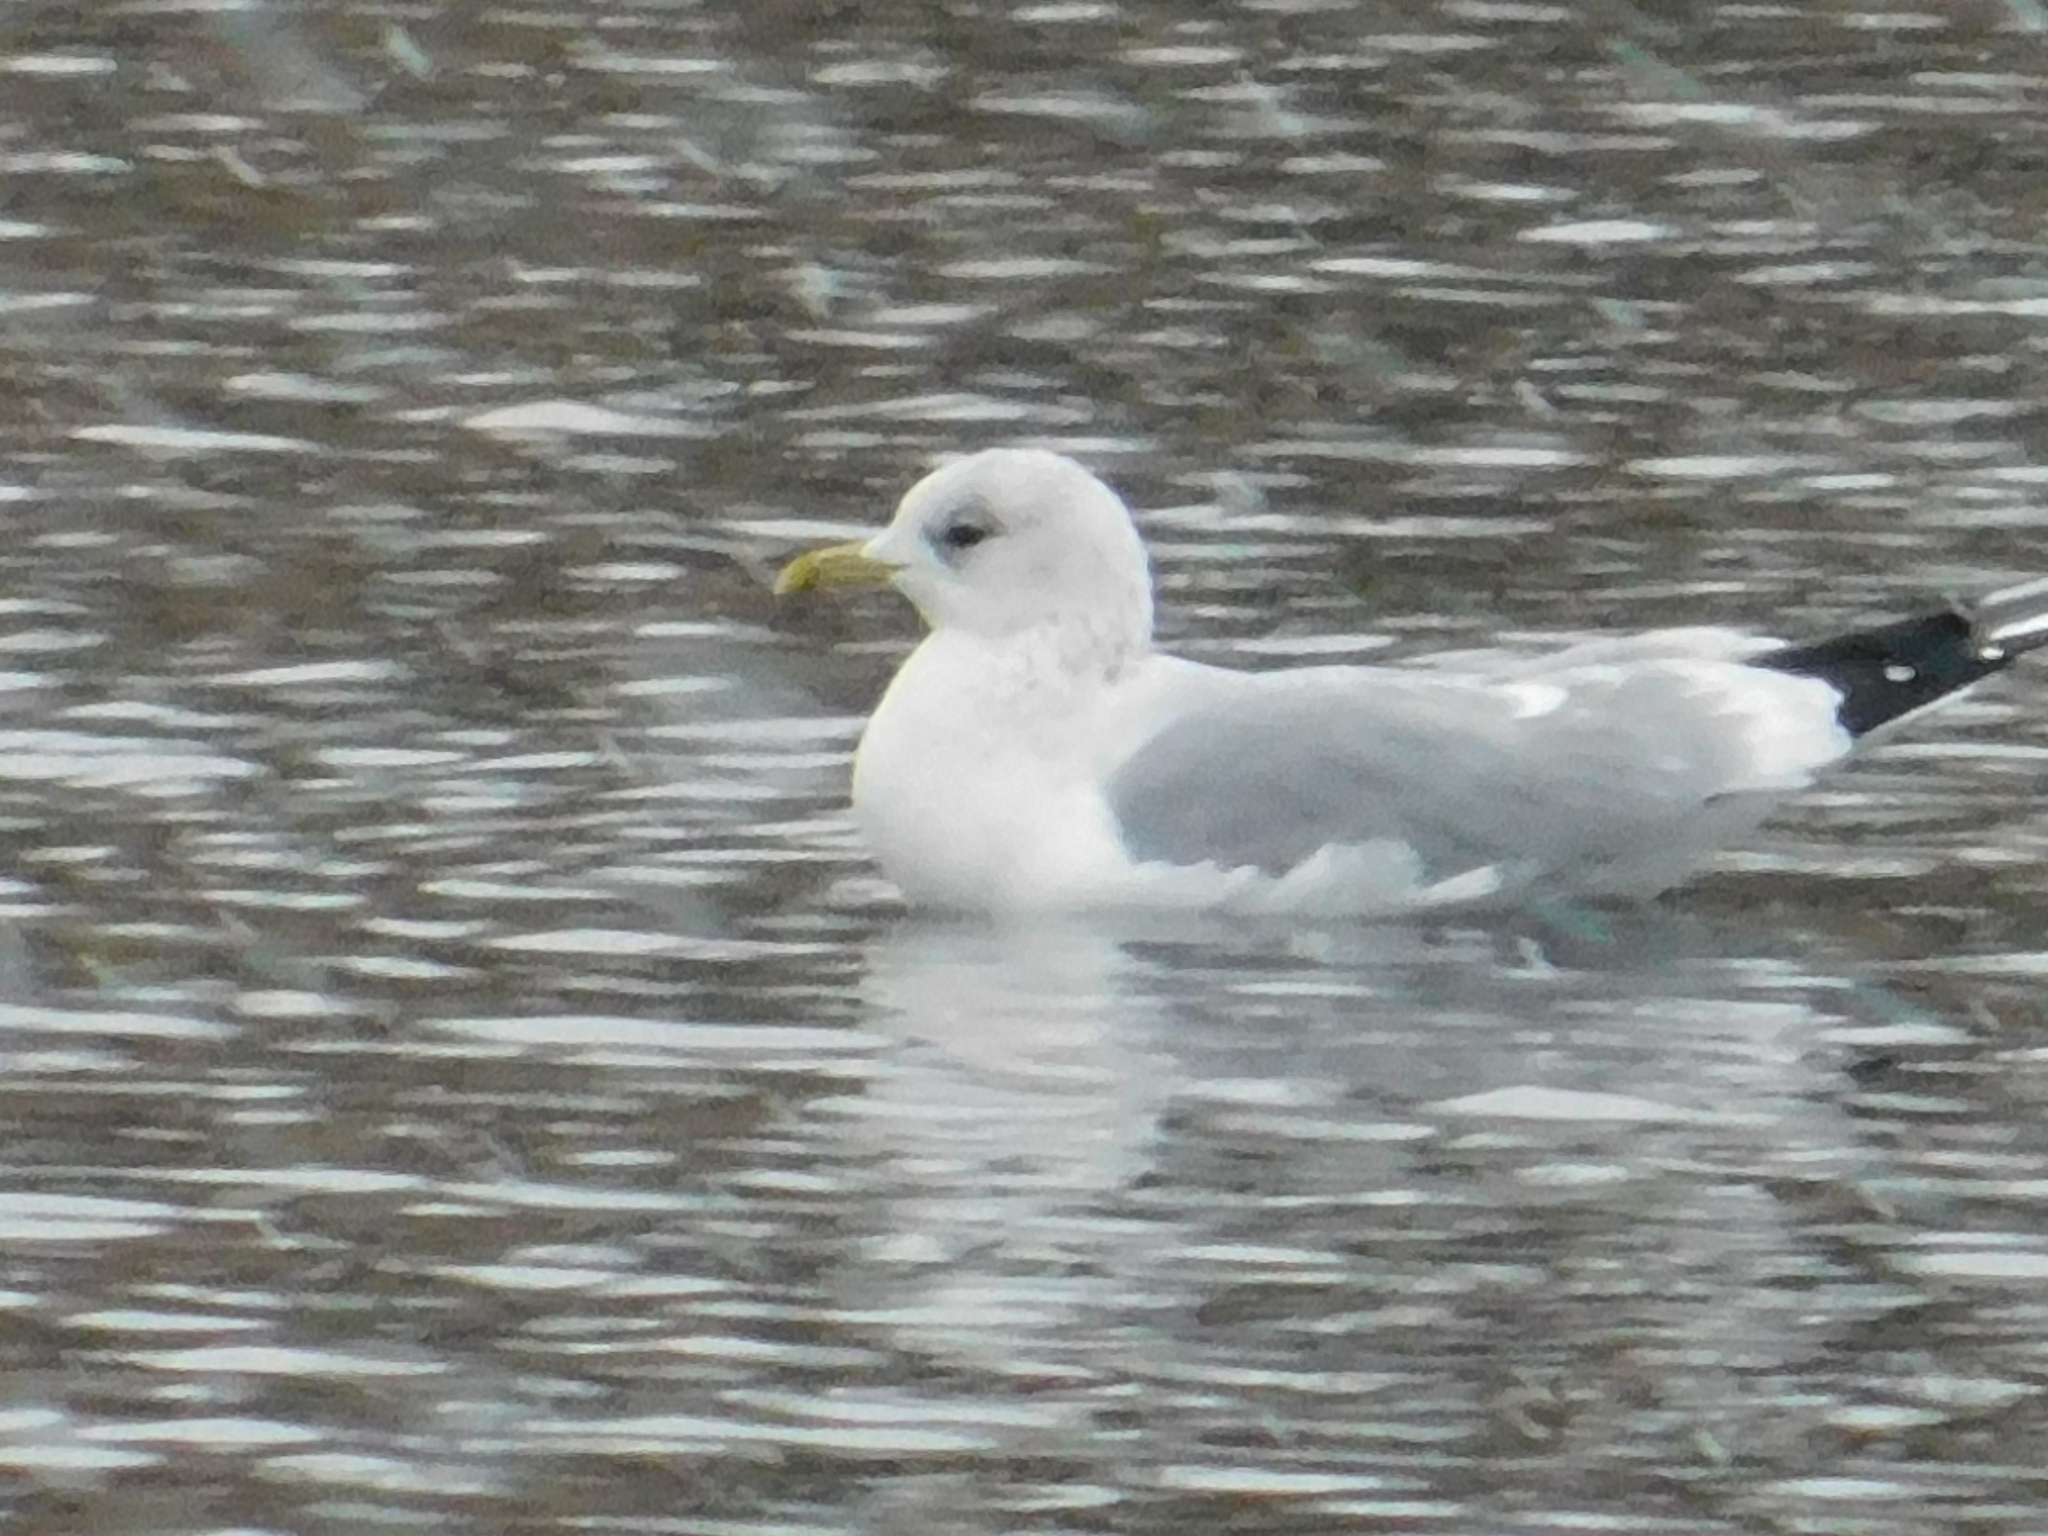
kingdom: Animalia
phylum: Chordata
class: Aves
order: Charadriiformes
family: Laridae
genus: Larus
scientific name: Larus canus
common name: Mew gull
